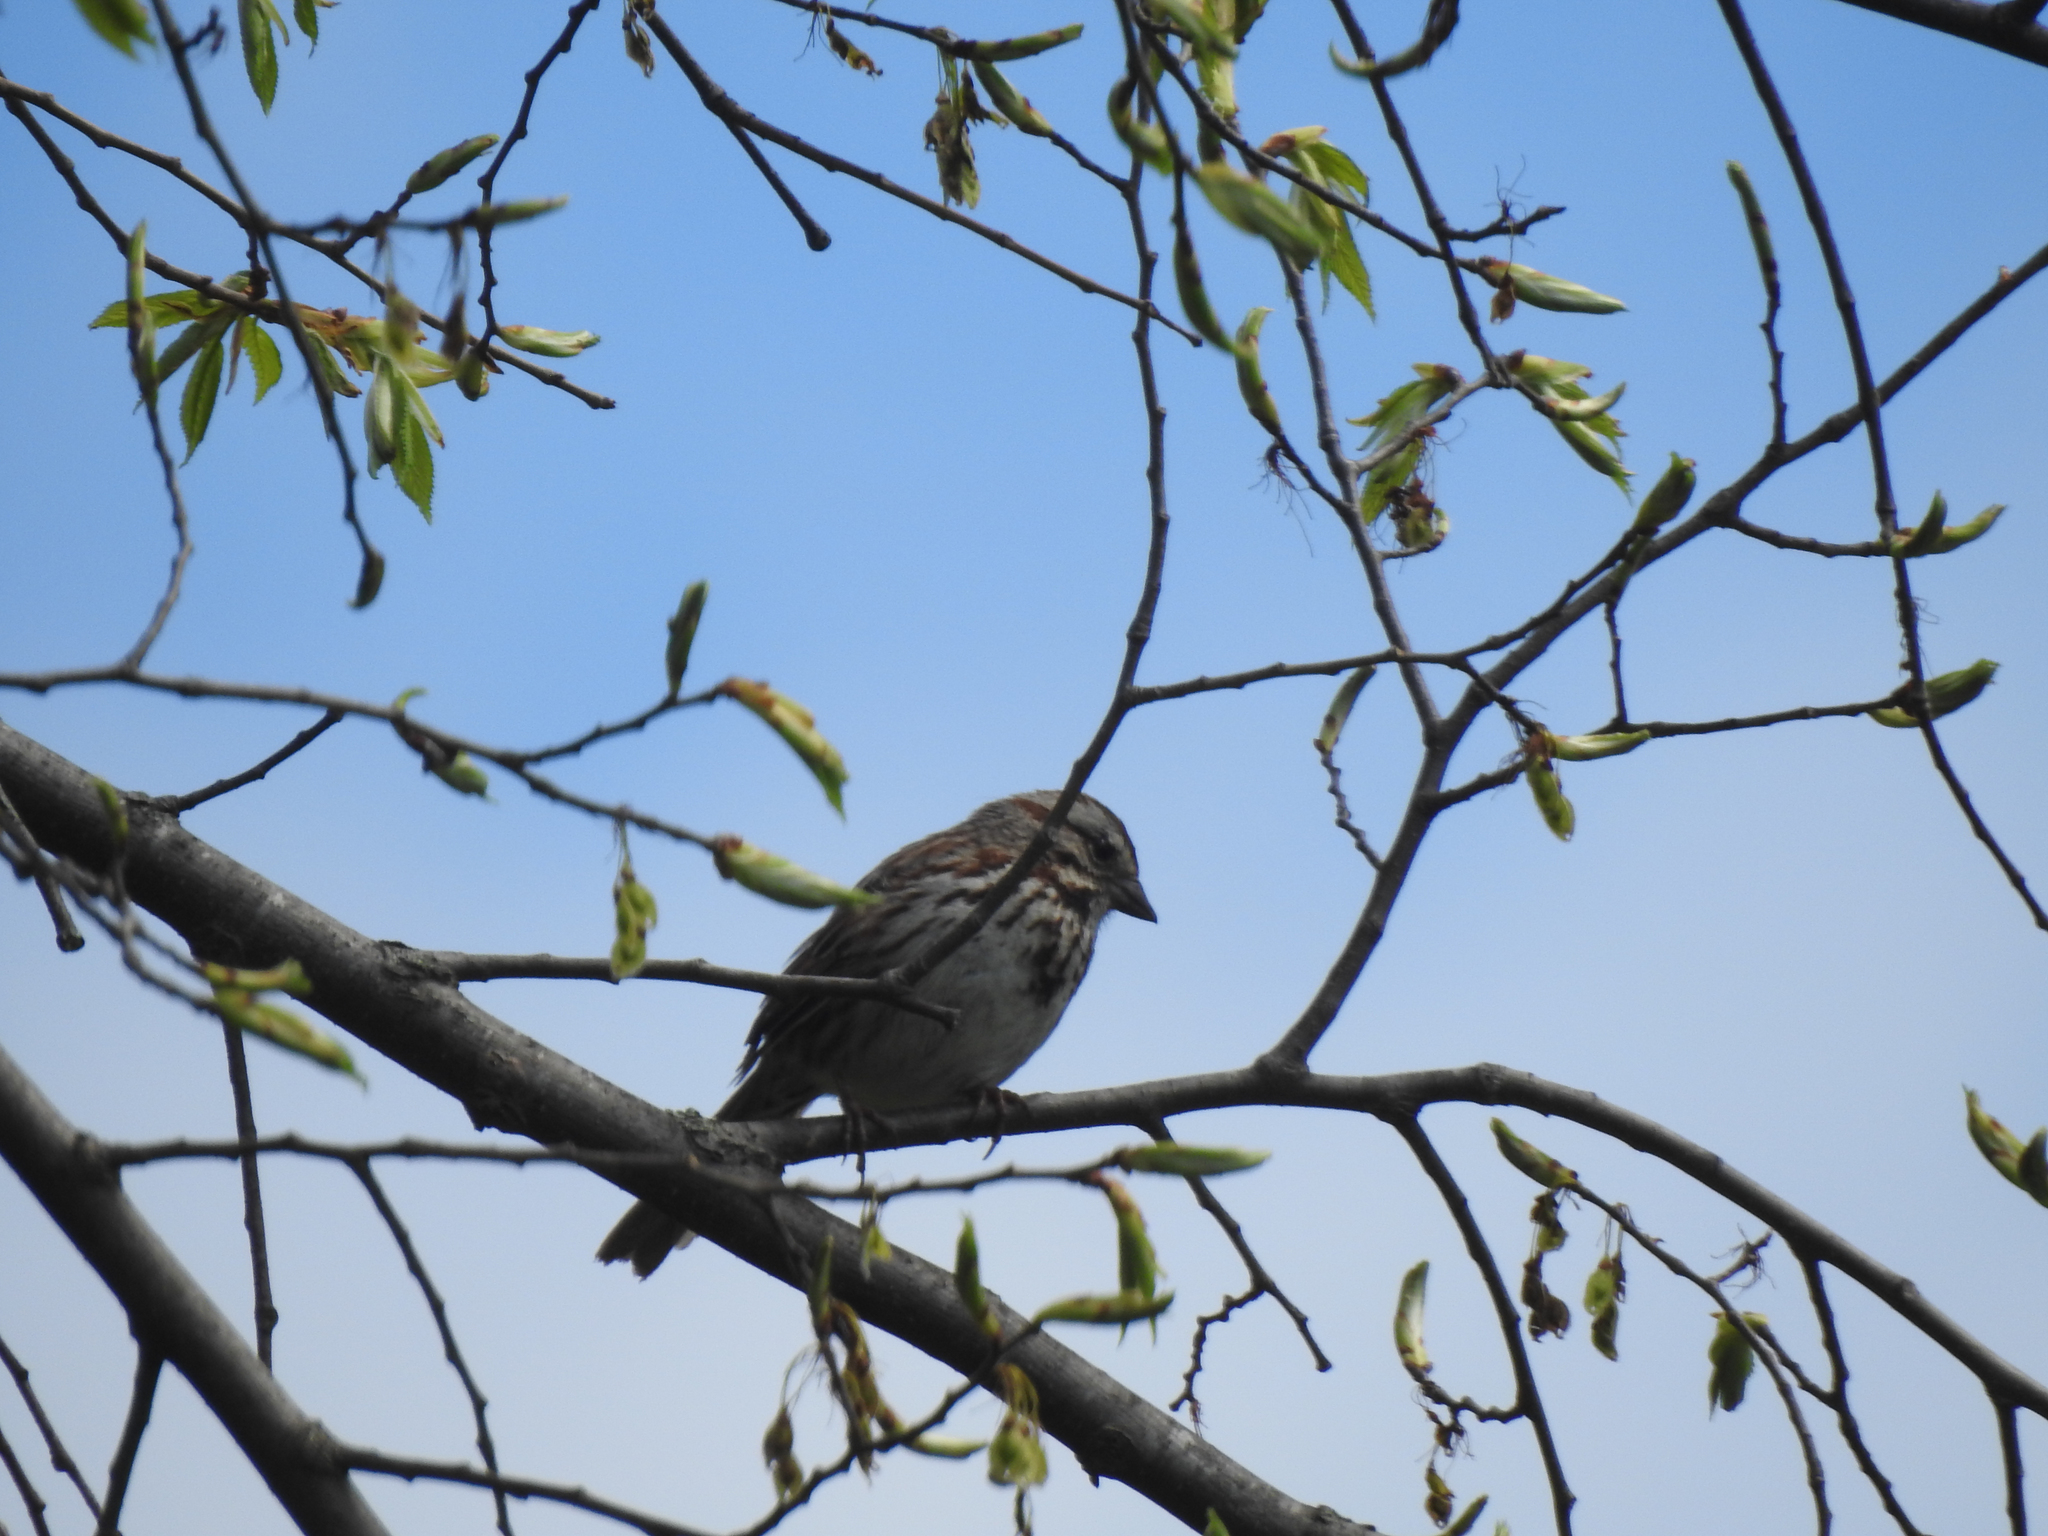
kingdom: Animalia
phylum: Chordata
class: Aves
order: Passeriformes
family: Passerellidae
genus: Melospiza
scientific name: Melospiza melodia
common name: Song sparrow
